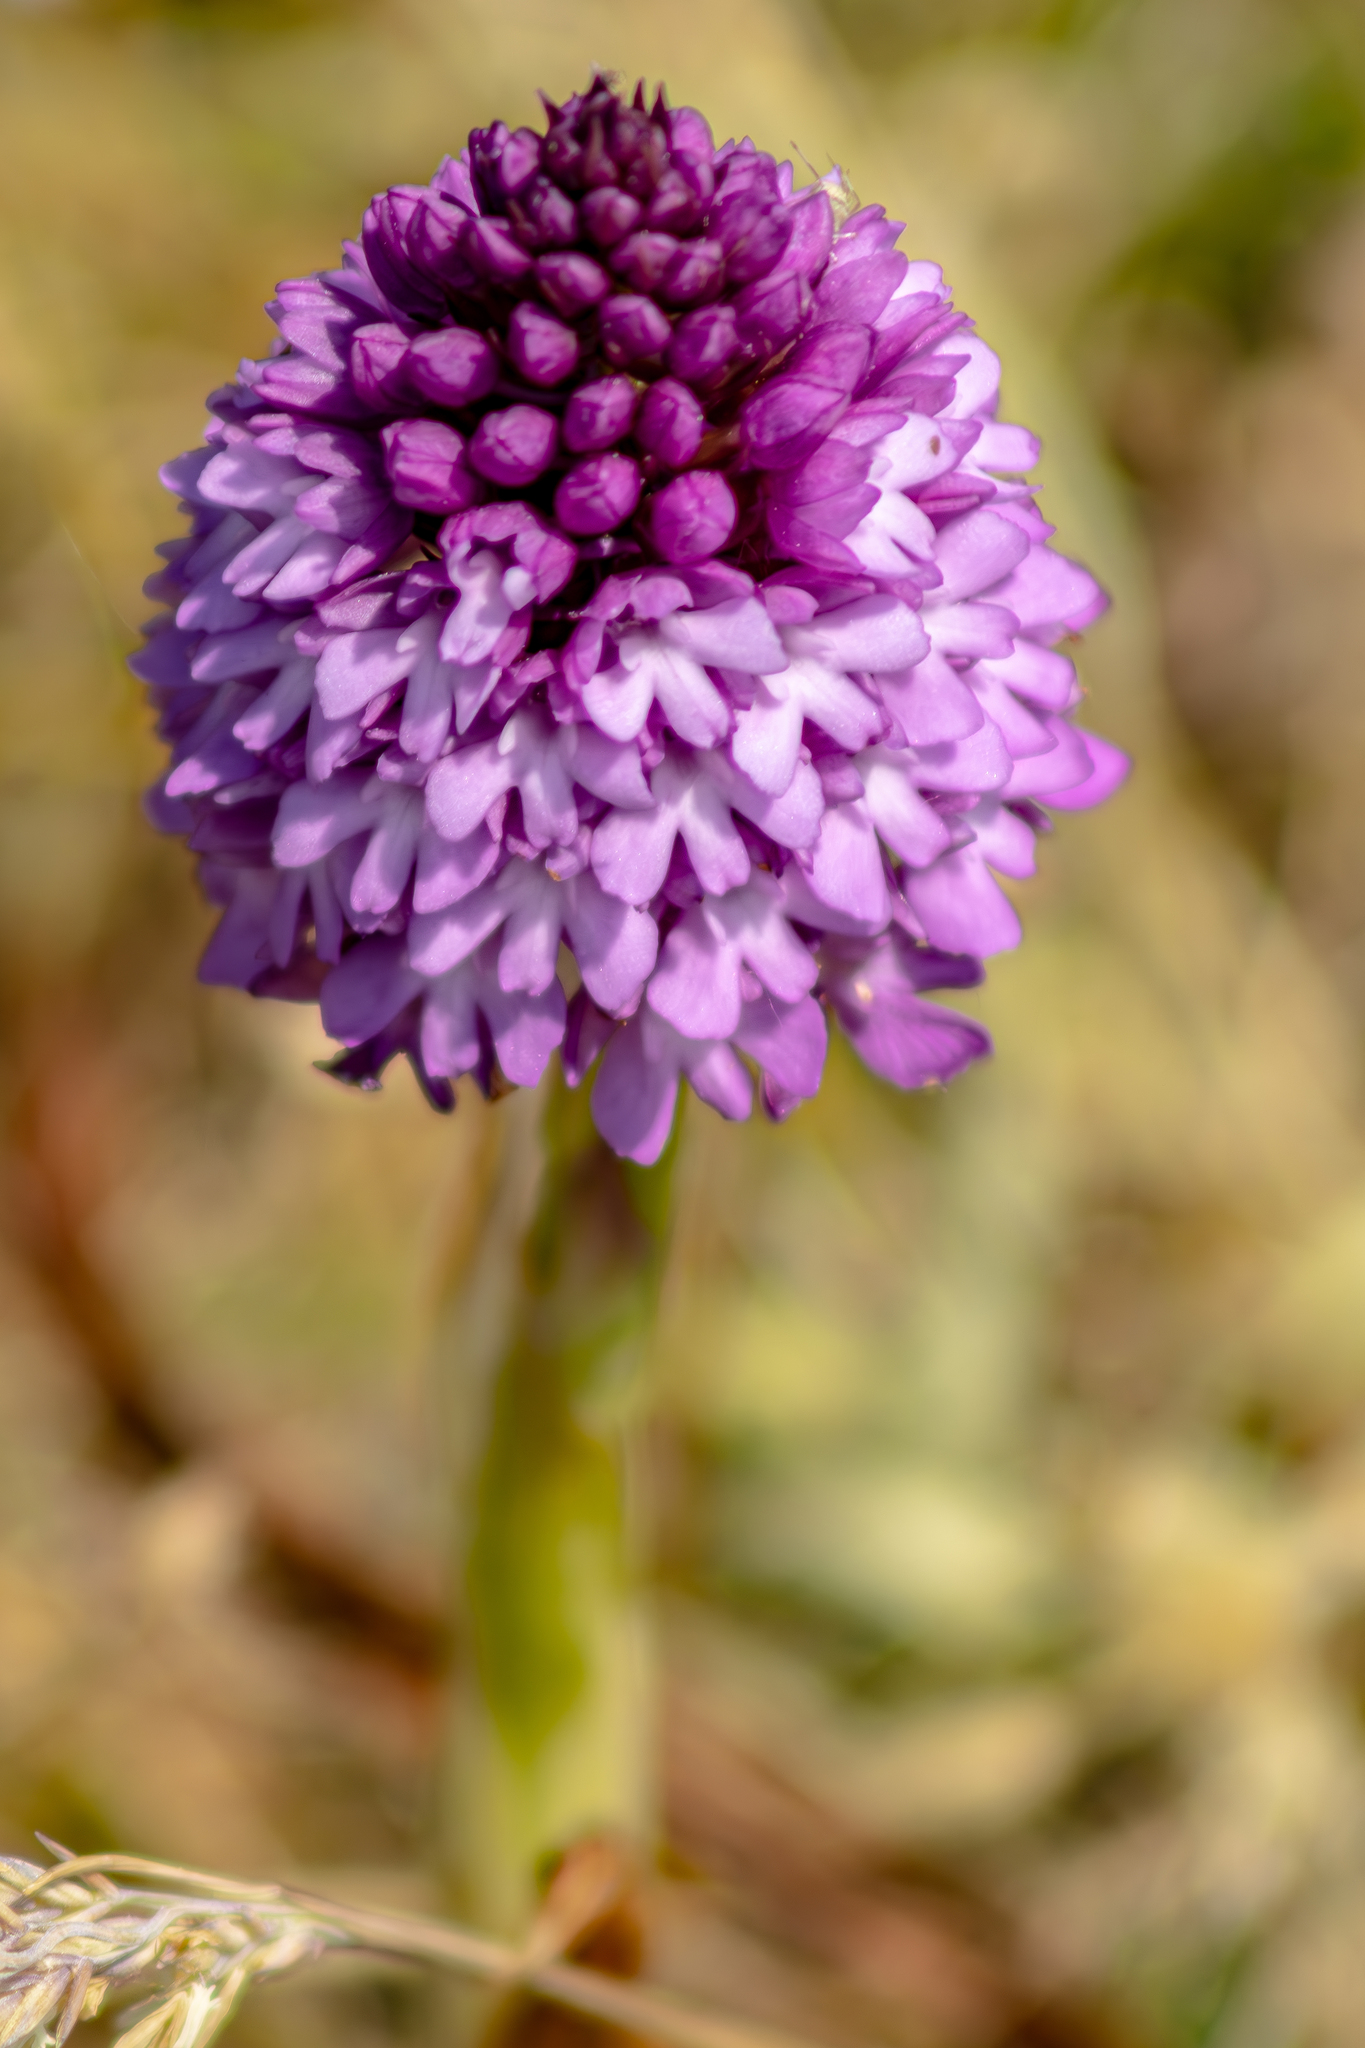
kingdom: Plantae
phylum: Tracheophyta
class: Liliopsida
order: Asparagales
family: Orchidaceae
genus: Anacamptis
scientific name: Anacamptis pyramidalis
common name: Pyramidal orchid
